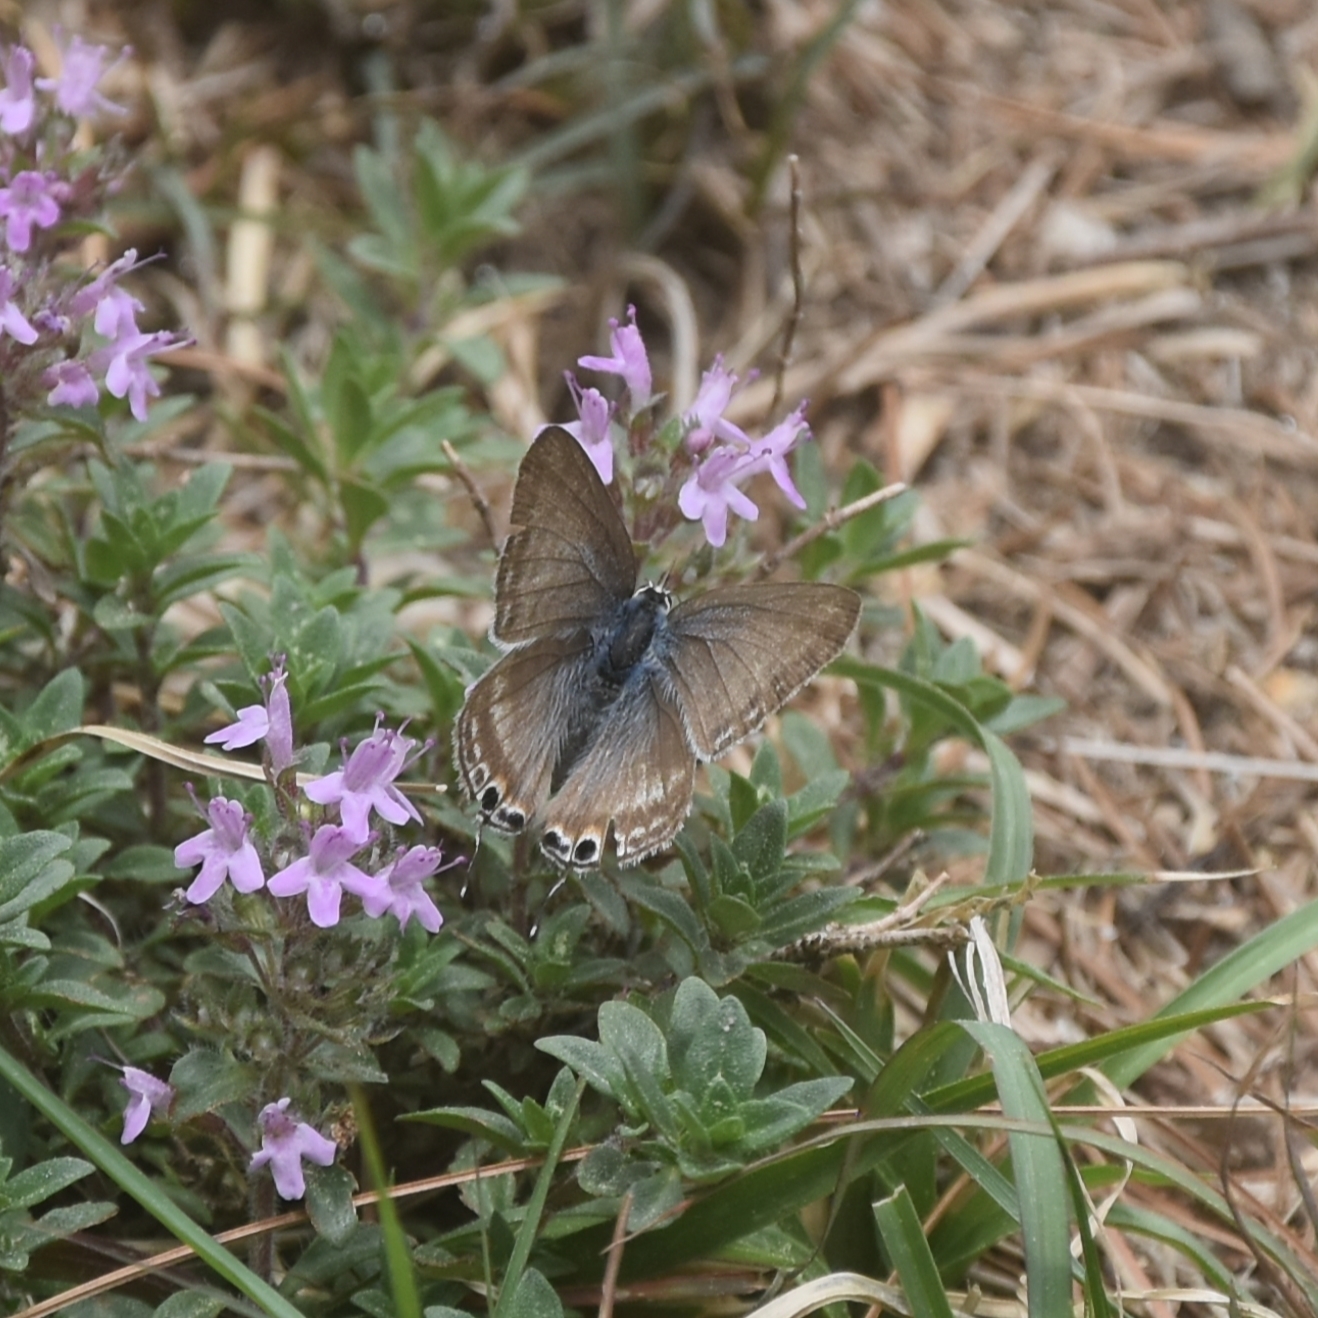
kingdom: Animalia
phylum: Arthropoda
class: Insecta
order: Lepidoptera
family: Lycaenidae
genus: Lampides
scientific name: Lampides boeticus
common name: Long-tailed blue
